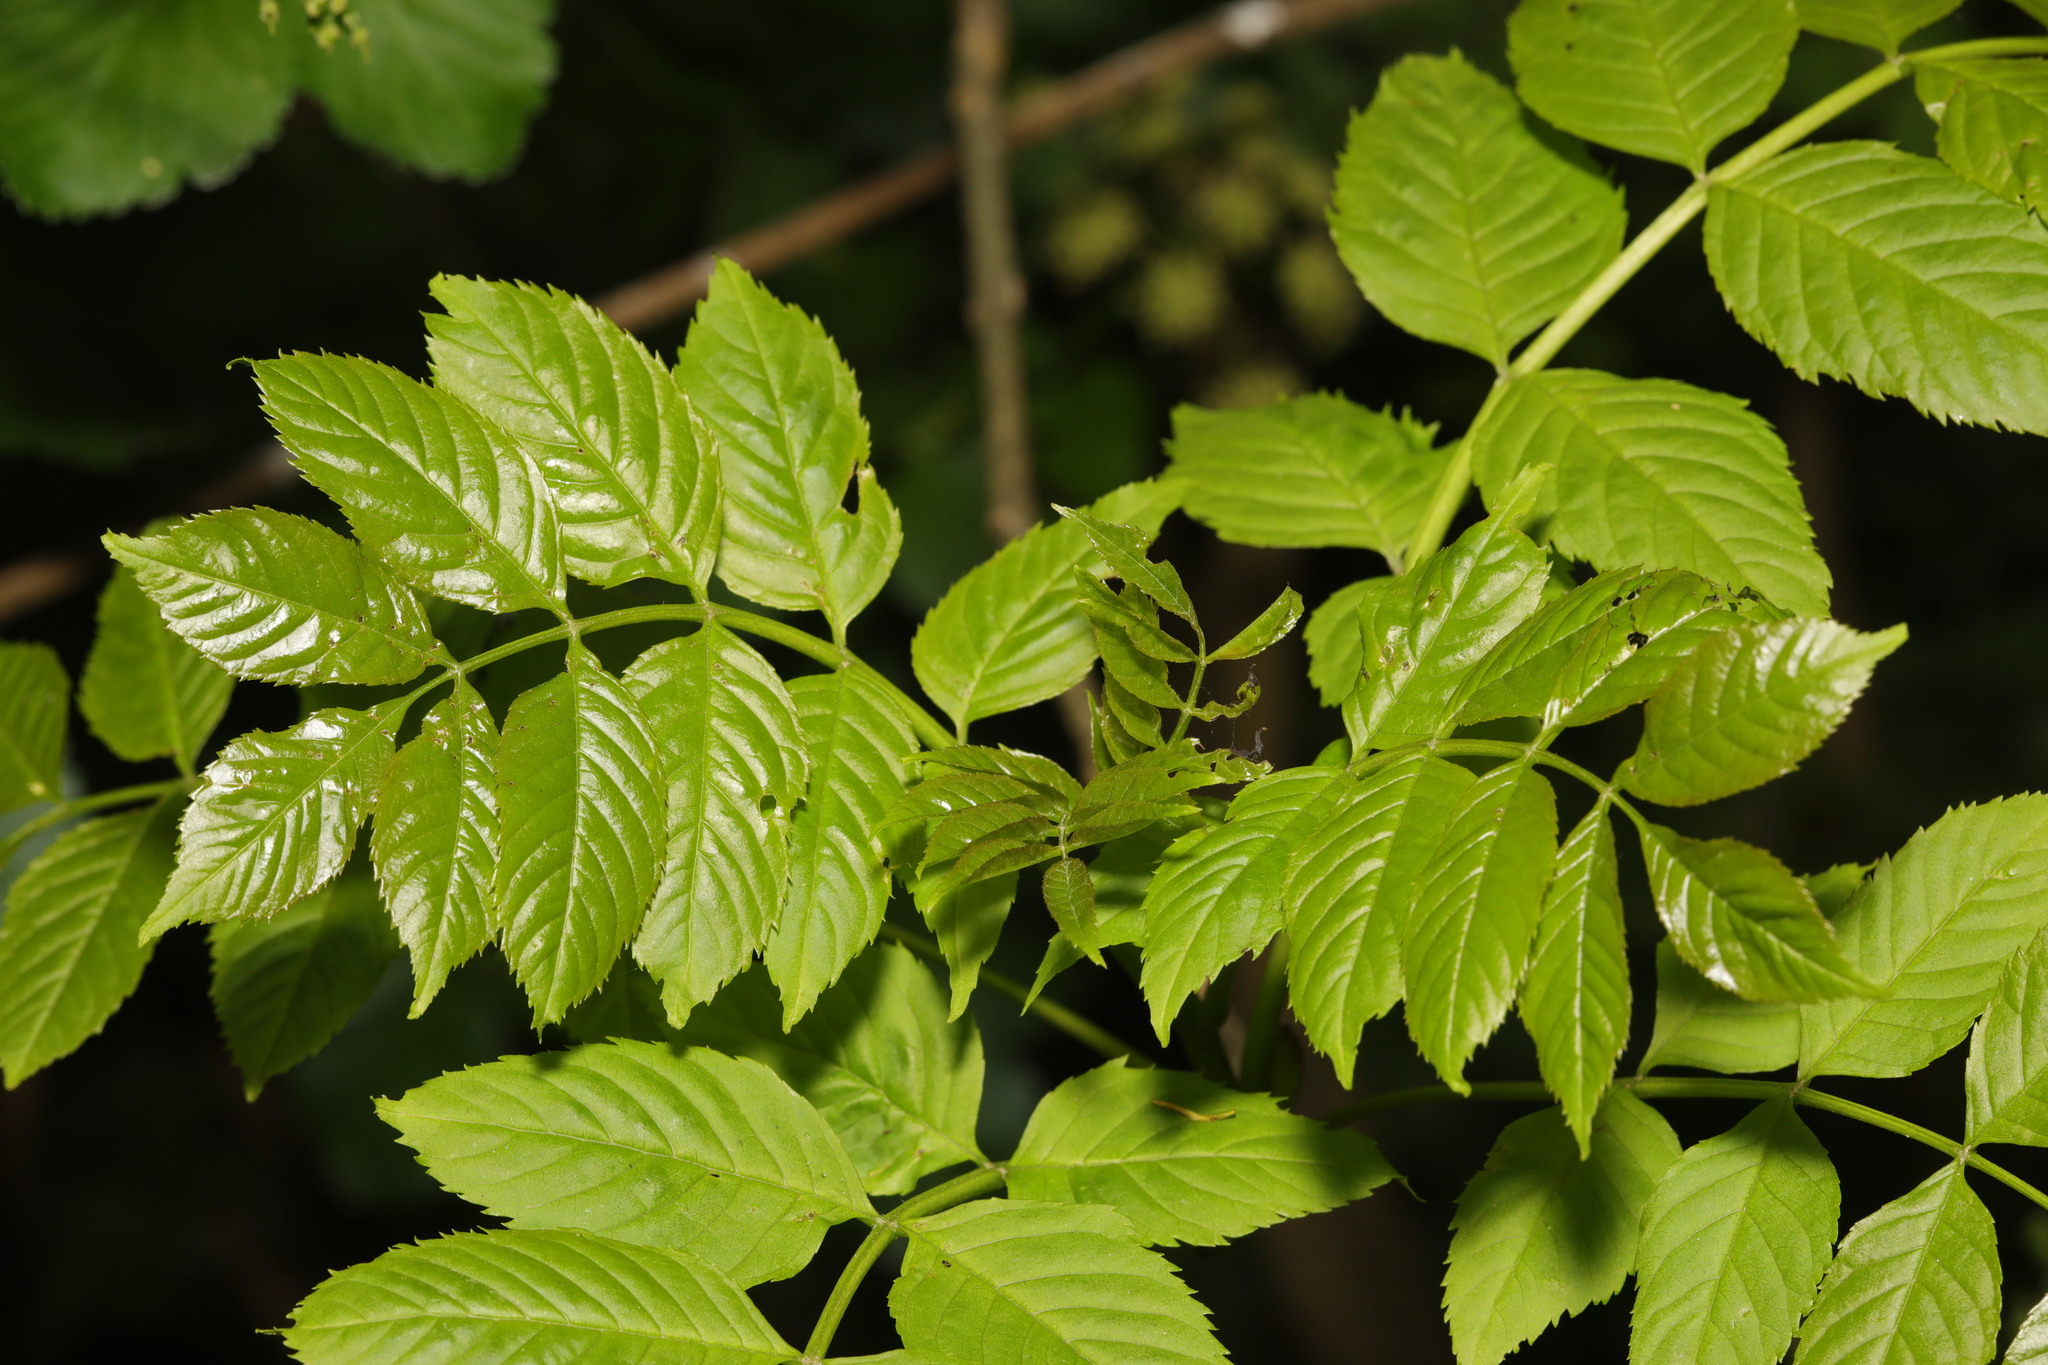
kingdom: Plantae
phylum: Tracheophyta
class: Magnoliopsida
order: Lamiales
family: Oleaceae
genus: Fraxinus
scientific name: Fraxinus excelsior
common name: European ash
